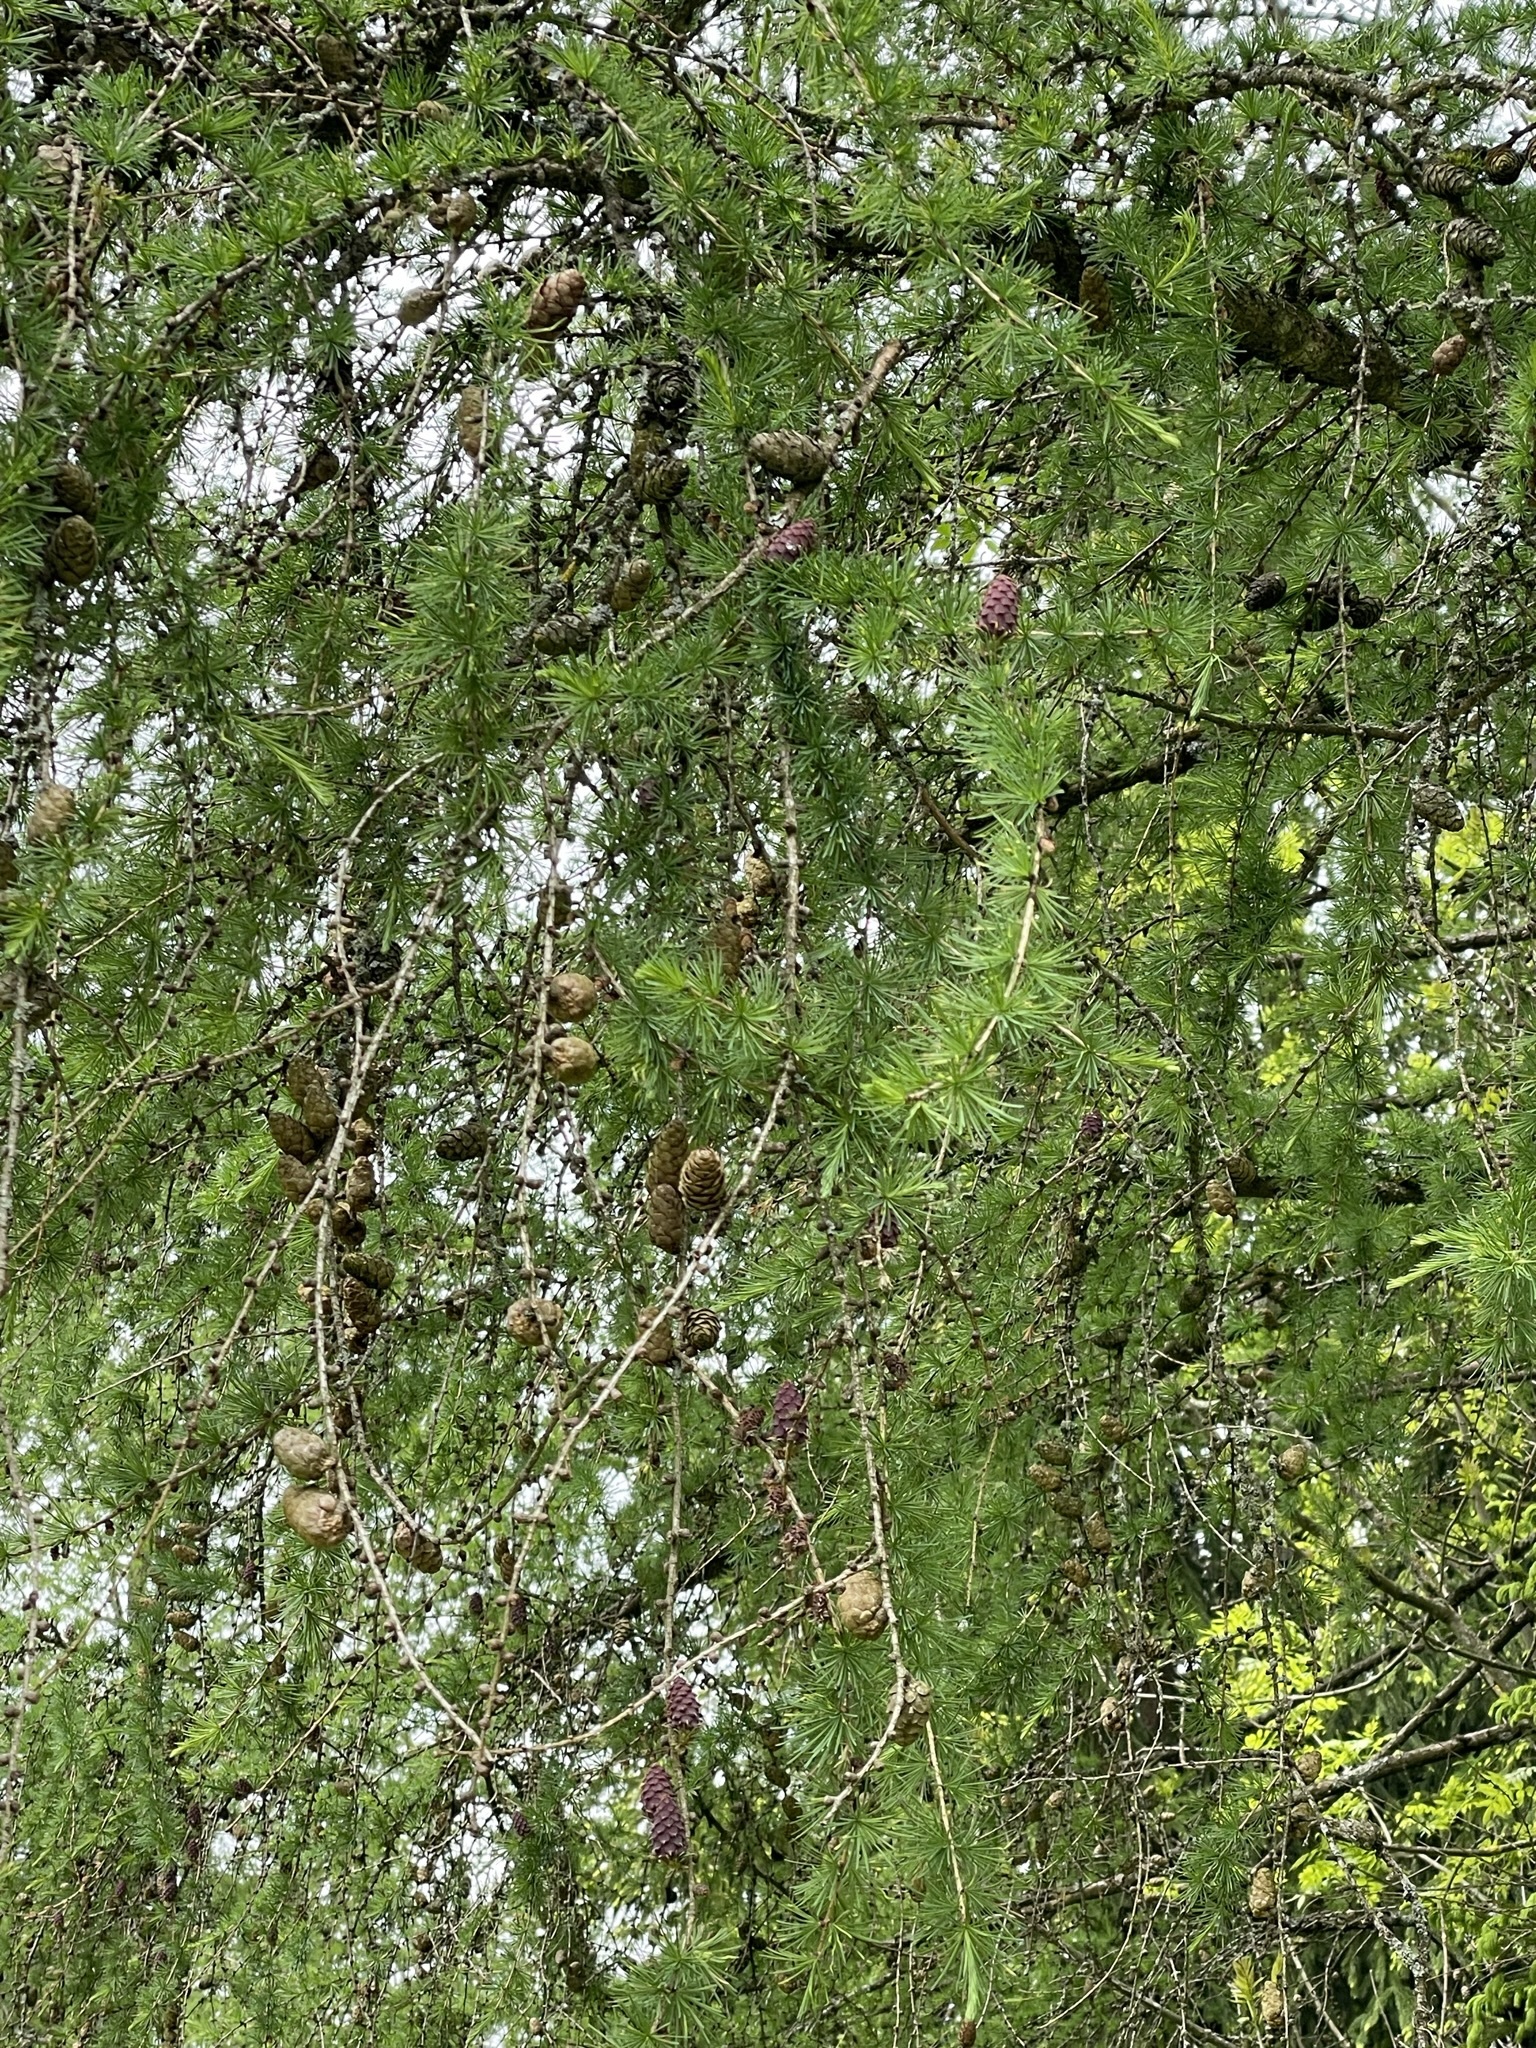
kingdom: Plantae
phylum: Tracheophyta
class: Pinopsida
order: Pinales
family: Pinaceae
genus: Larix
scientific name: Larix decidua
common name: European larch
